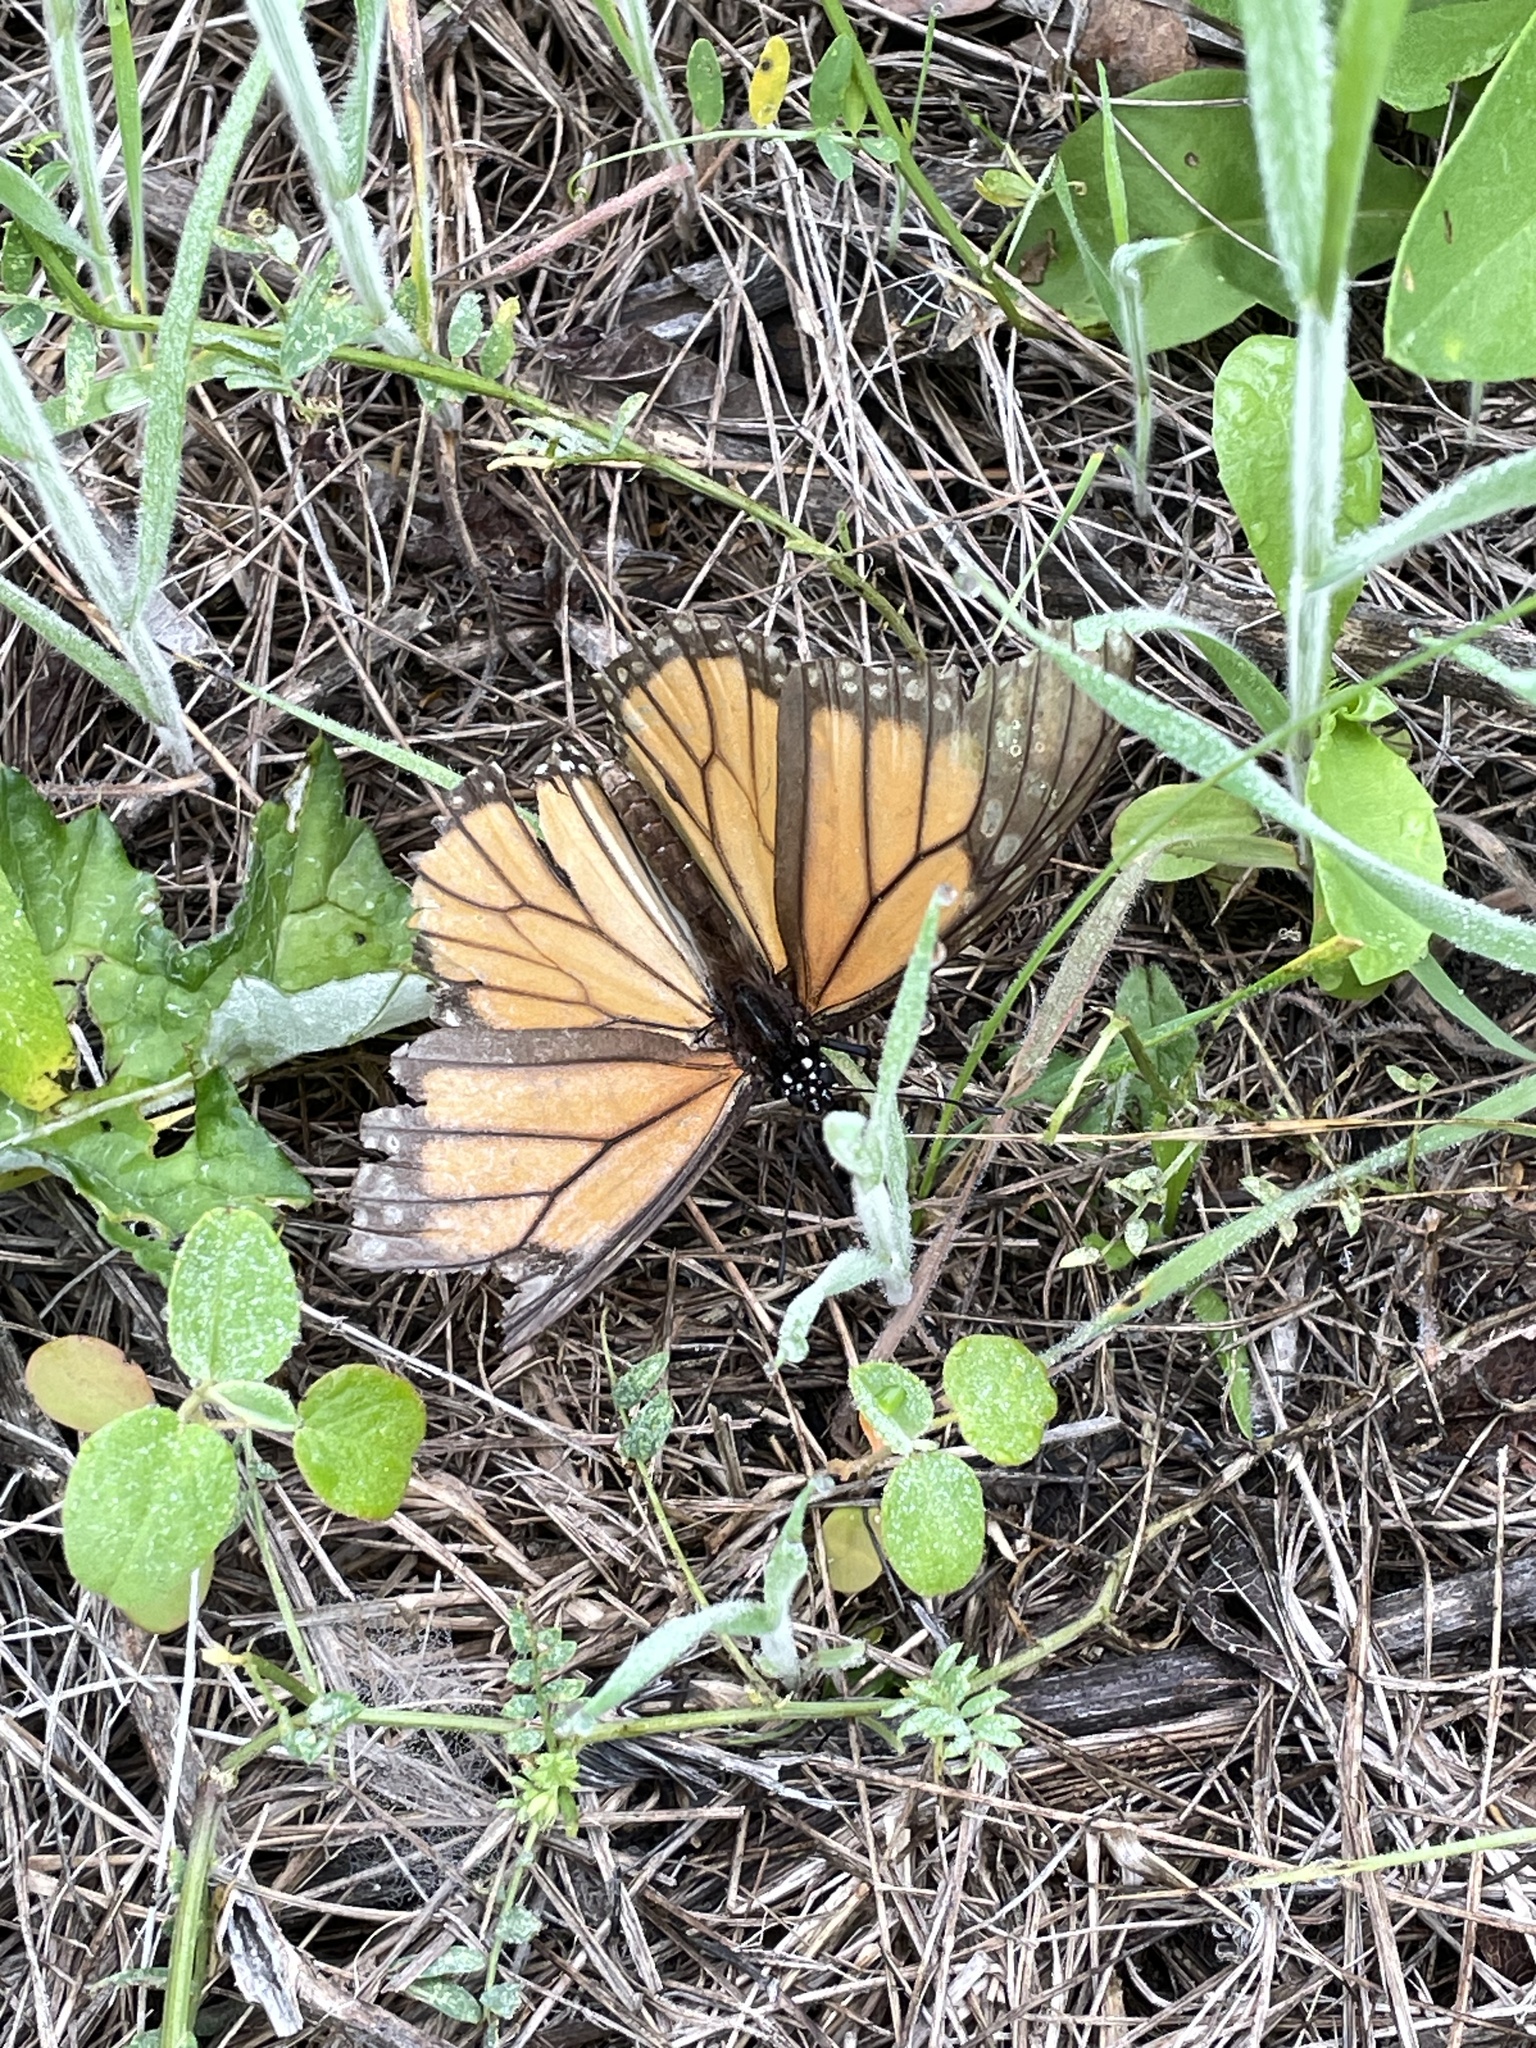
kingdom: Animalia
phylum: Arthropoda
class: Insecta
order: Lepidoptera
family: Nymphalidae
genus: Danaus
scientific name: Danaus plexippus
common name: Monarch
